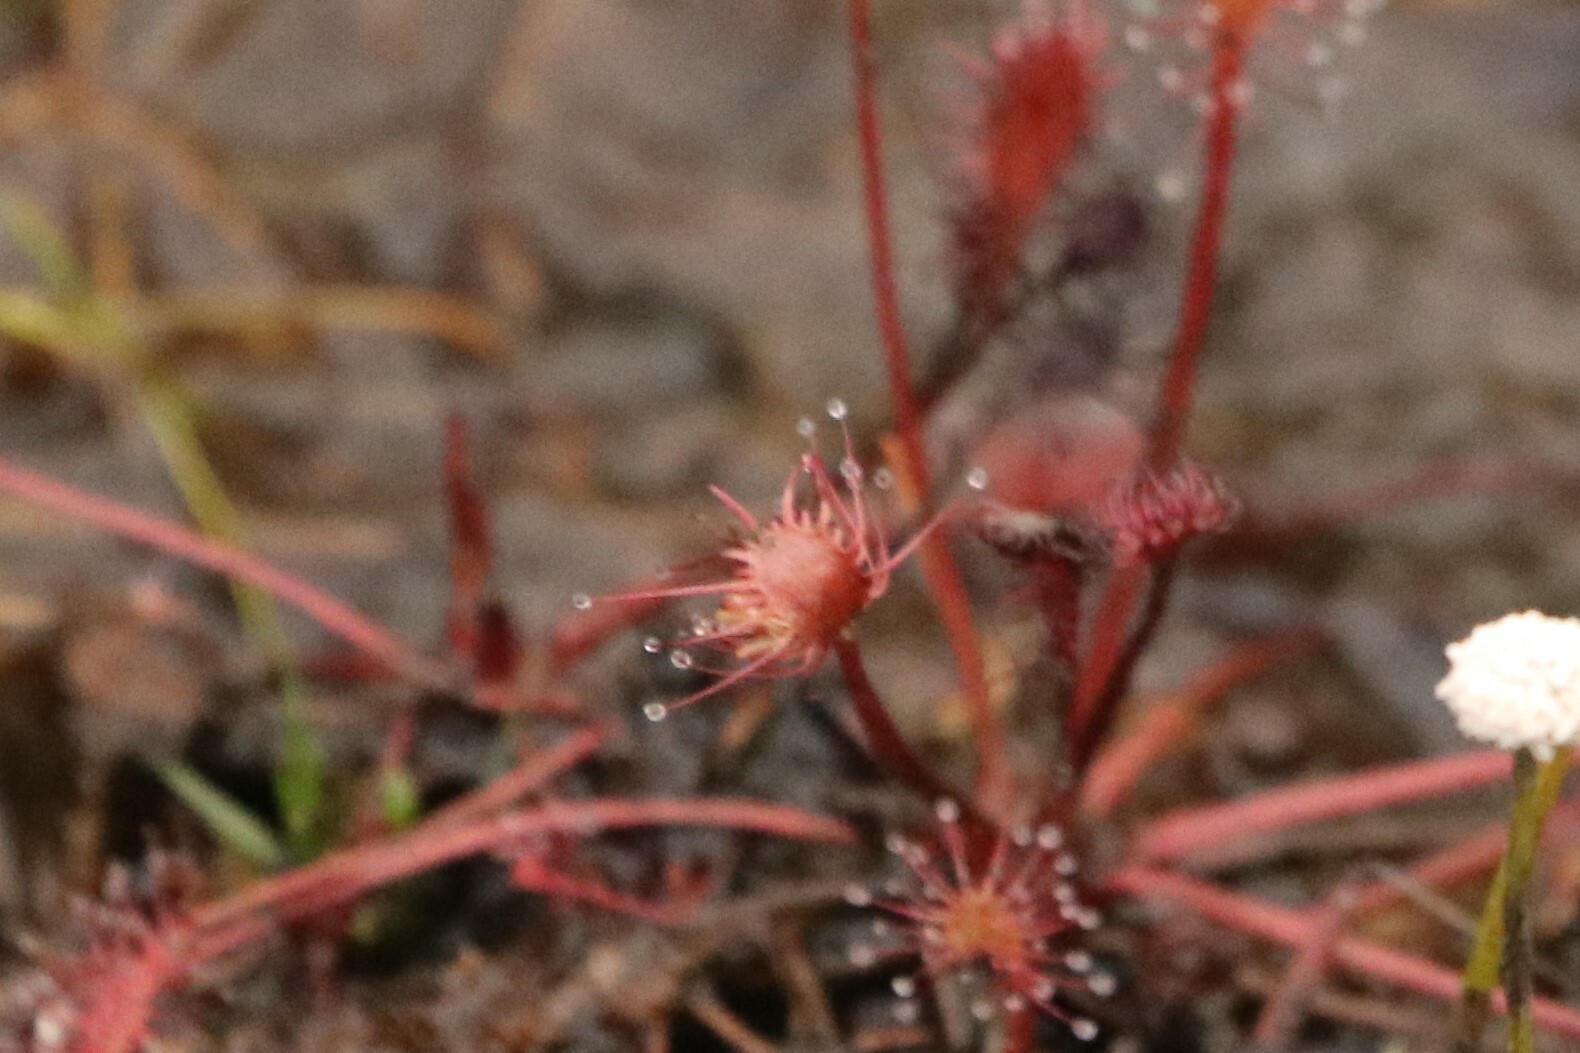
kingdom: Plantae
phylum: Tracheophyta
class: Magnoliopsida
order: Caryophyllales
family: Droseraceae
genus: Drosera
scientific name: Drosera intermedia
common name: Oblong-leaved sundew
